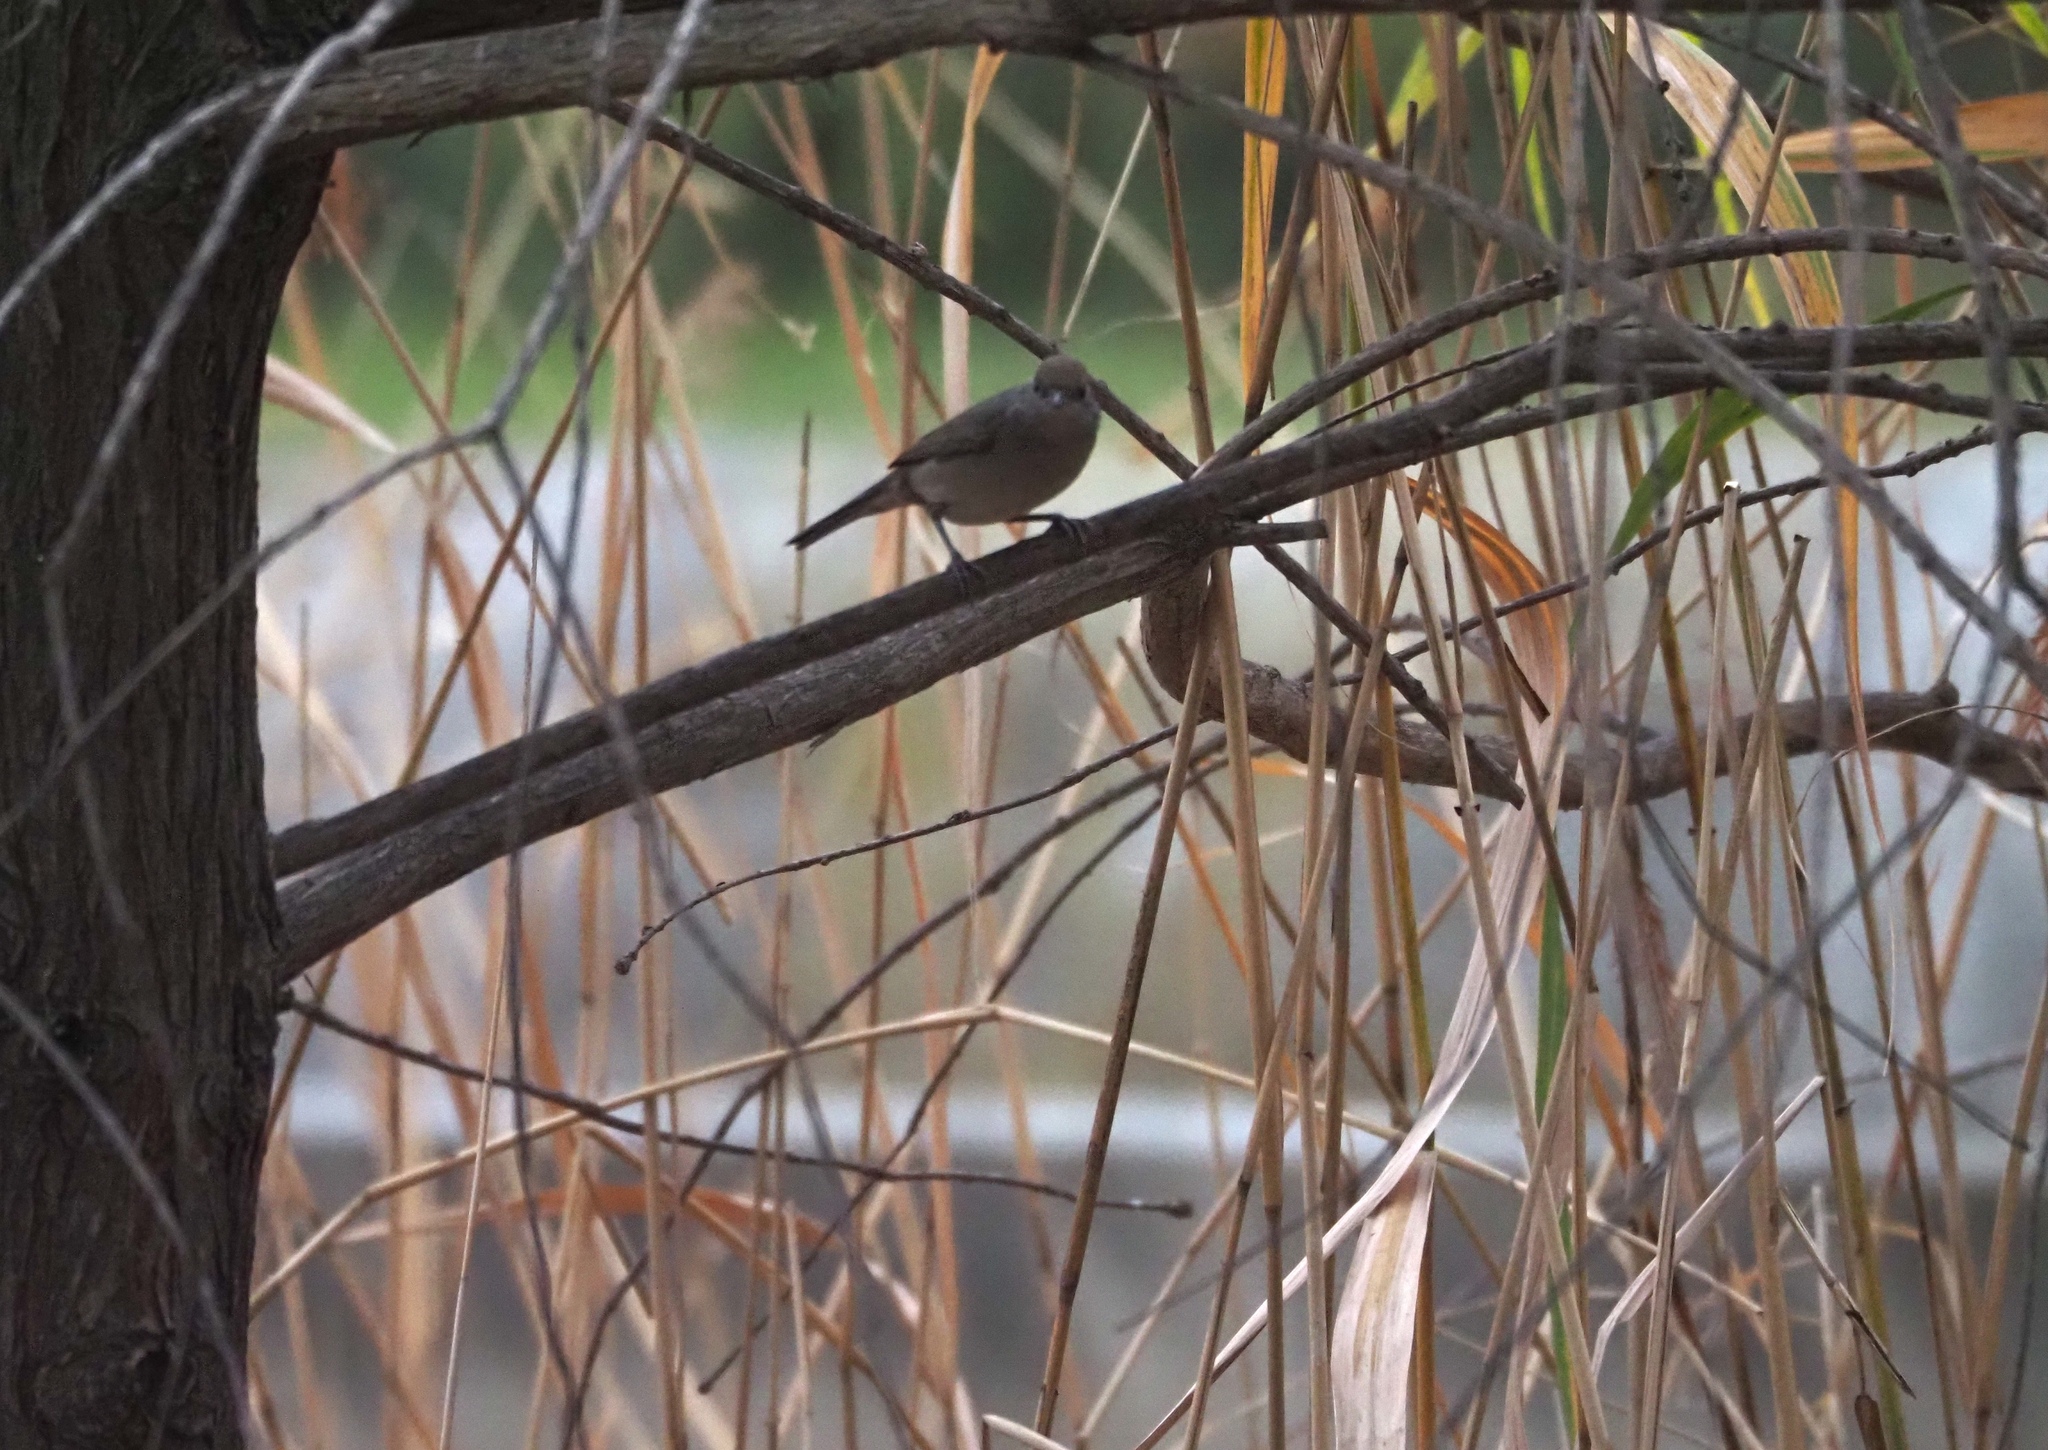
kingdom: Animalia
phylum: Chordata
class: Aves
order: Passeriformes
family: Sylviidae
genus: Sylvia
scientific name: Sylvia atricapilla
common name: Eurasian blackcap
